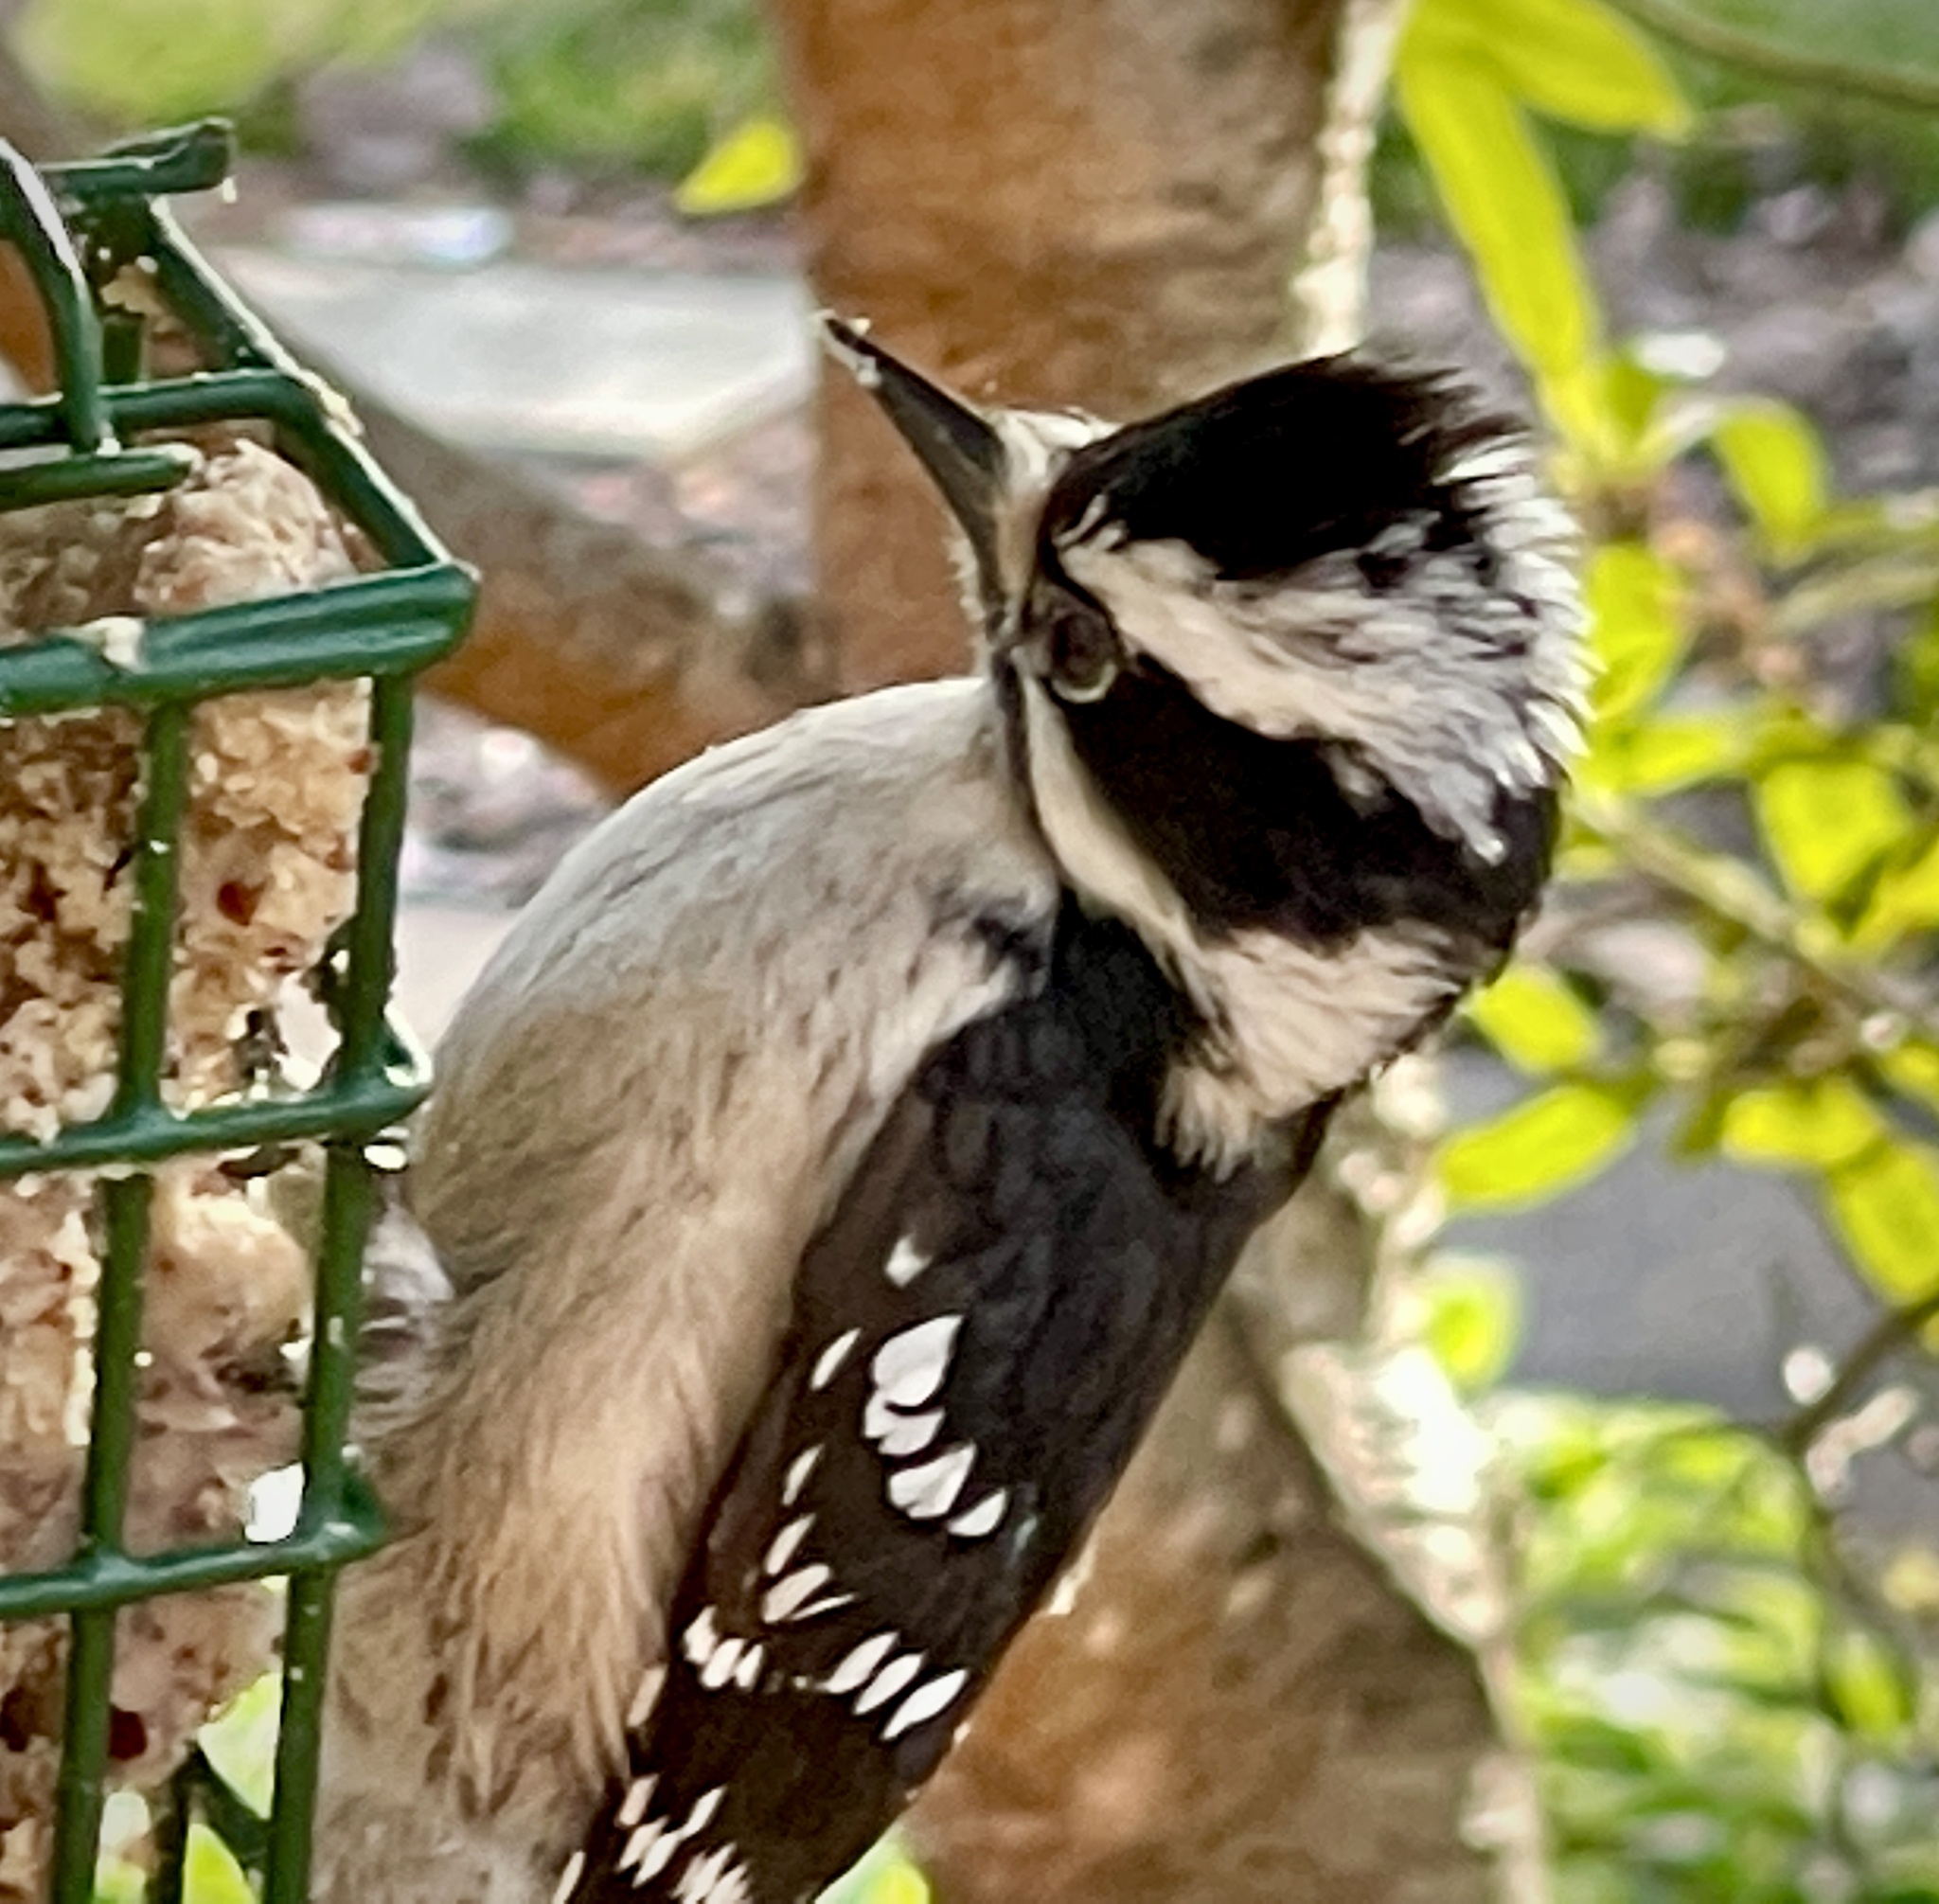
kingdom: Animalia
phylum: Chordata
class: Aves
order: Piciformes
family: Picidae
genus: Dryobates
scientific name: Dryobates pubescens
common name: Downy woodpecker
